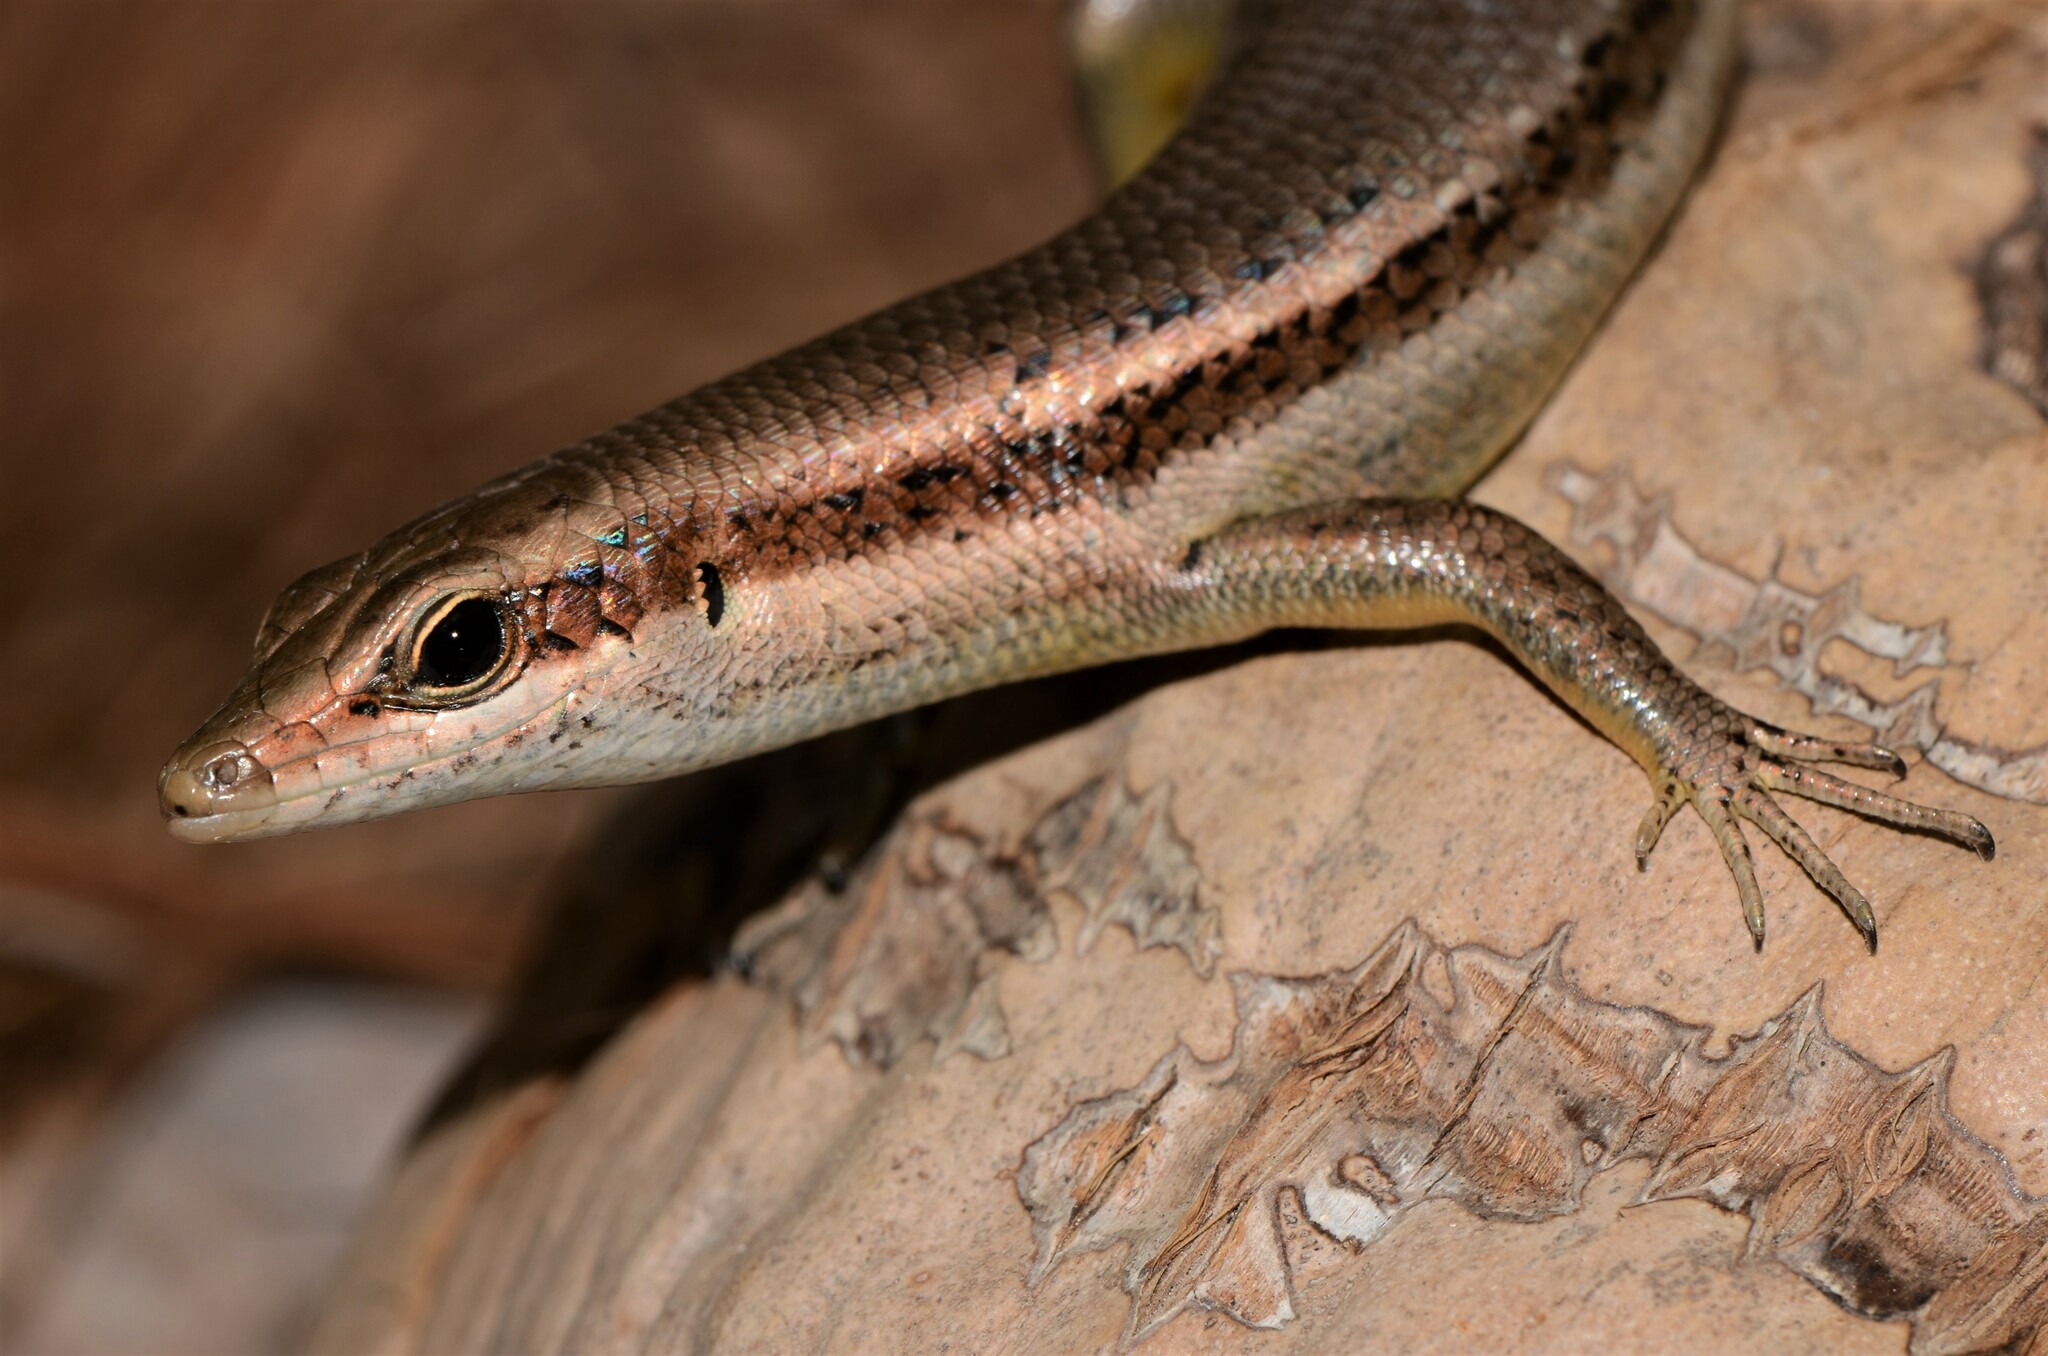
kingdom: Animalia
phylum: Chordata
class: Squamata
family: Scincidae
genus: Trachylepis
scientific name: Trachylepis sechellensis
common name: Seychelles skink
